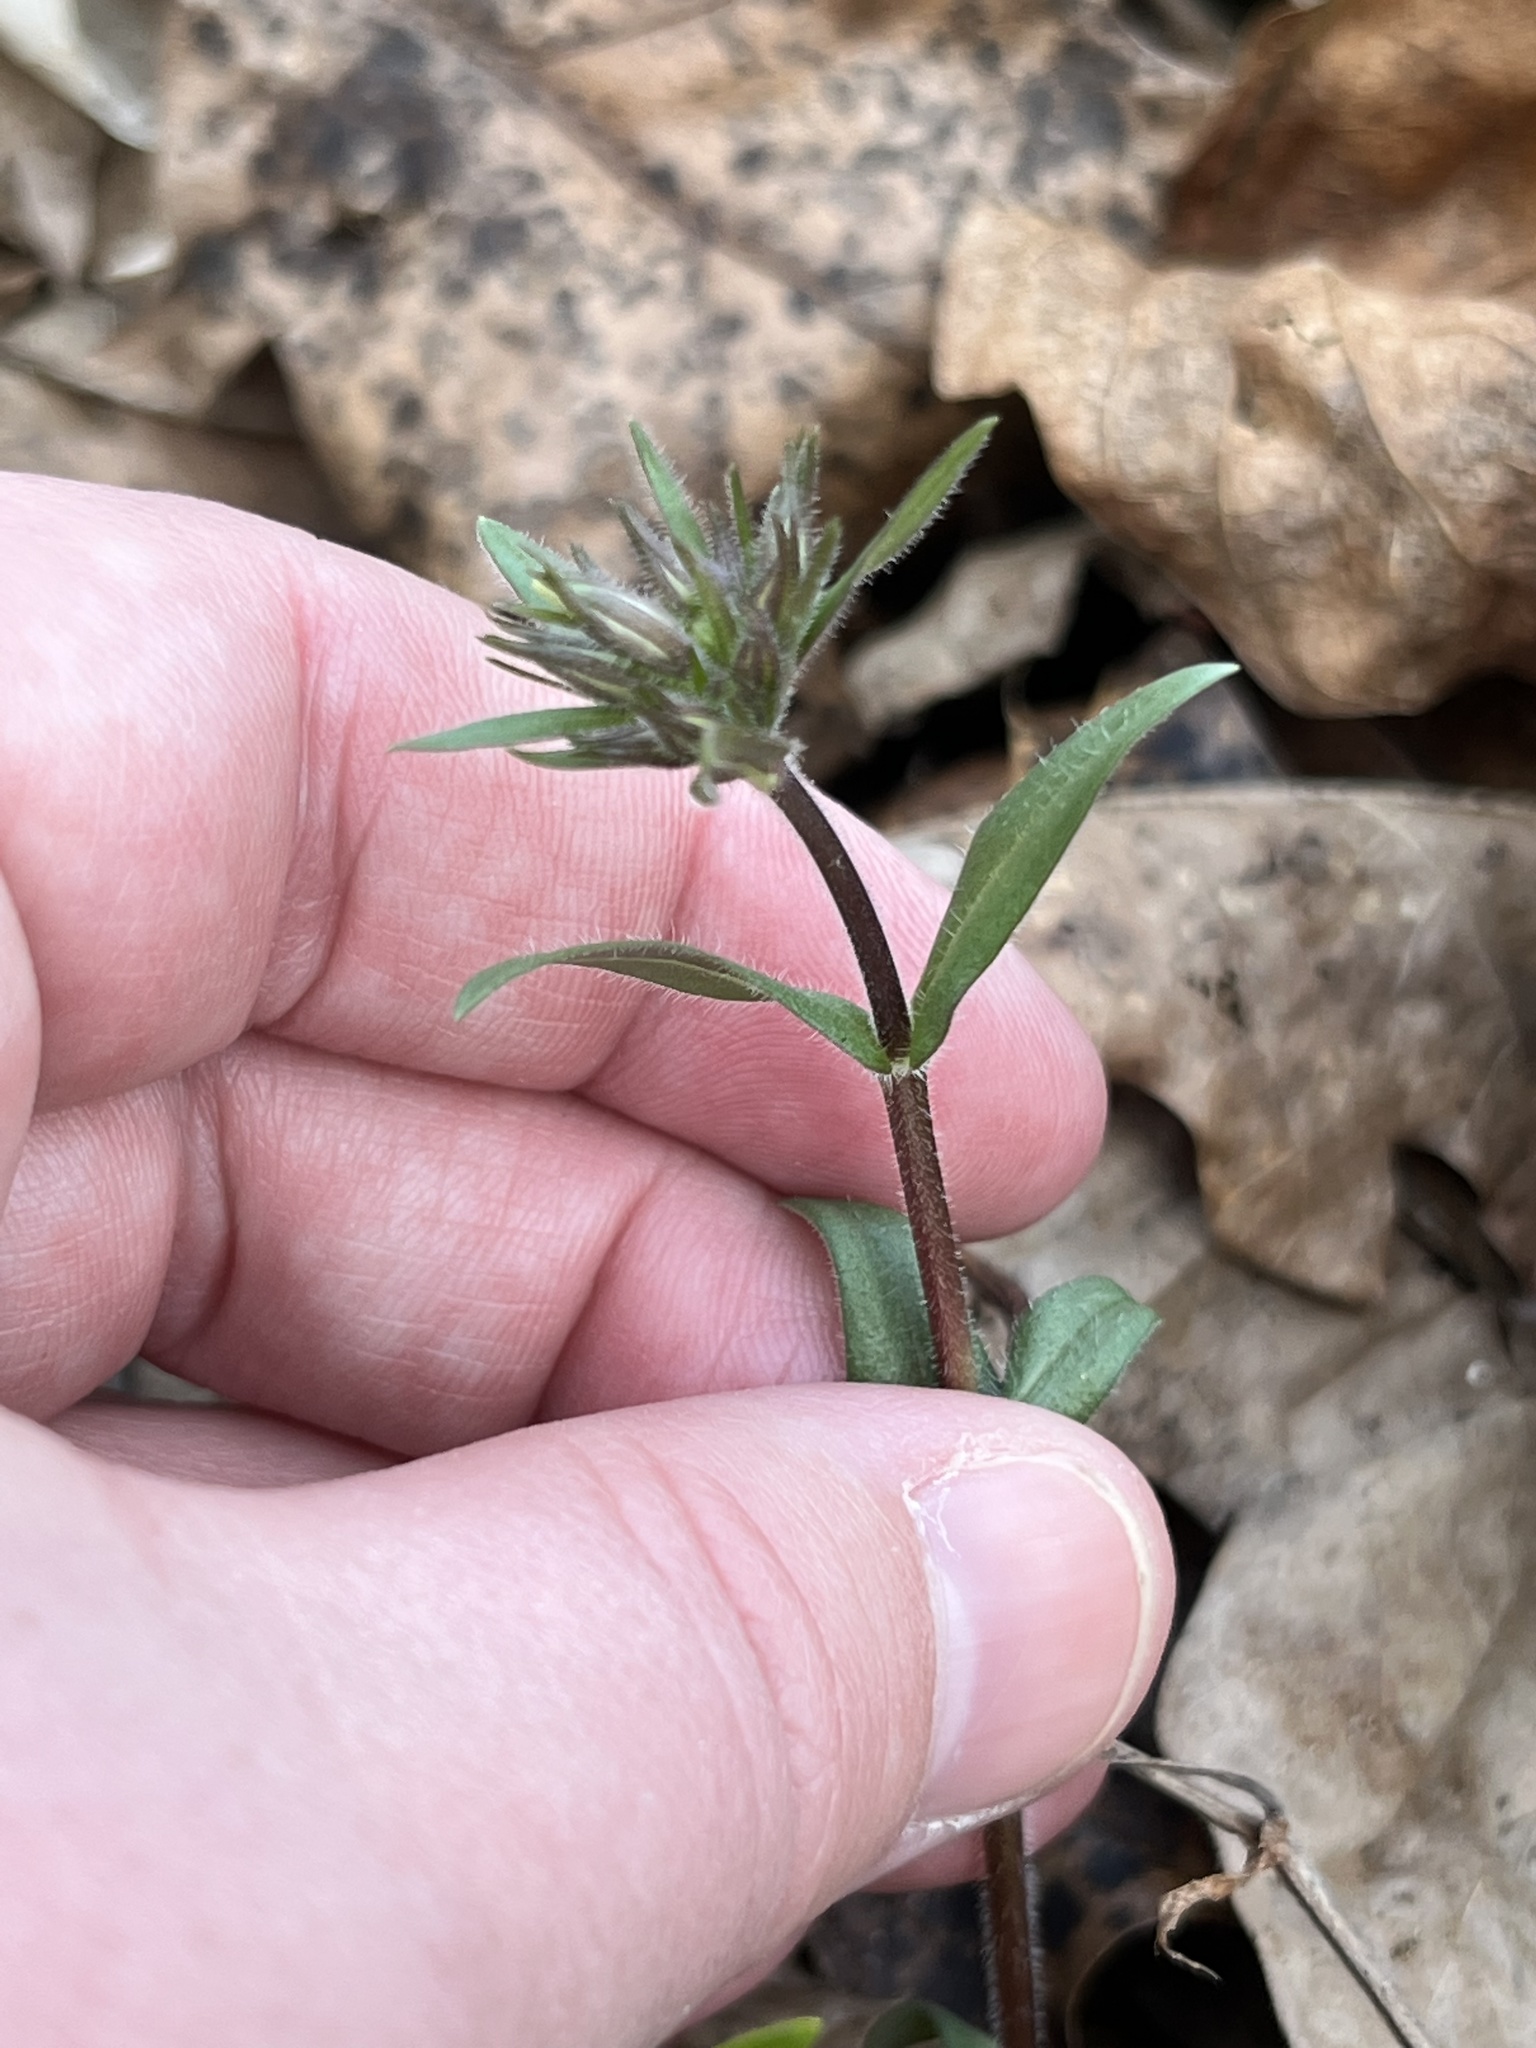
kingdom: Plantae
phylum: Tracheophyta
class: Magnoliopsida
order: Ericales
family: Polemoniaceae
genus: Phlox
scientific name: Phlox divaricata
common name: Blue phlox
